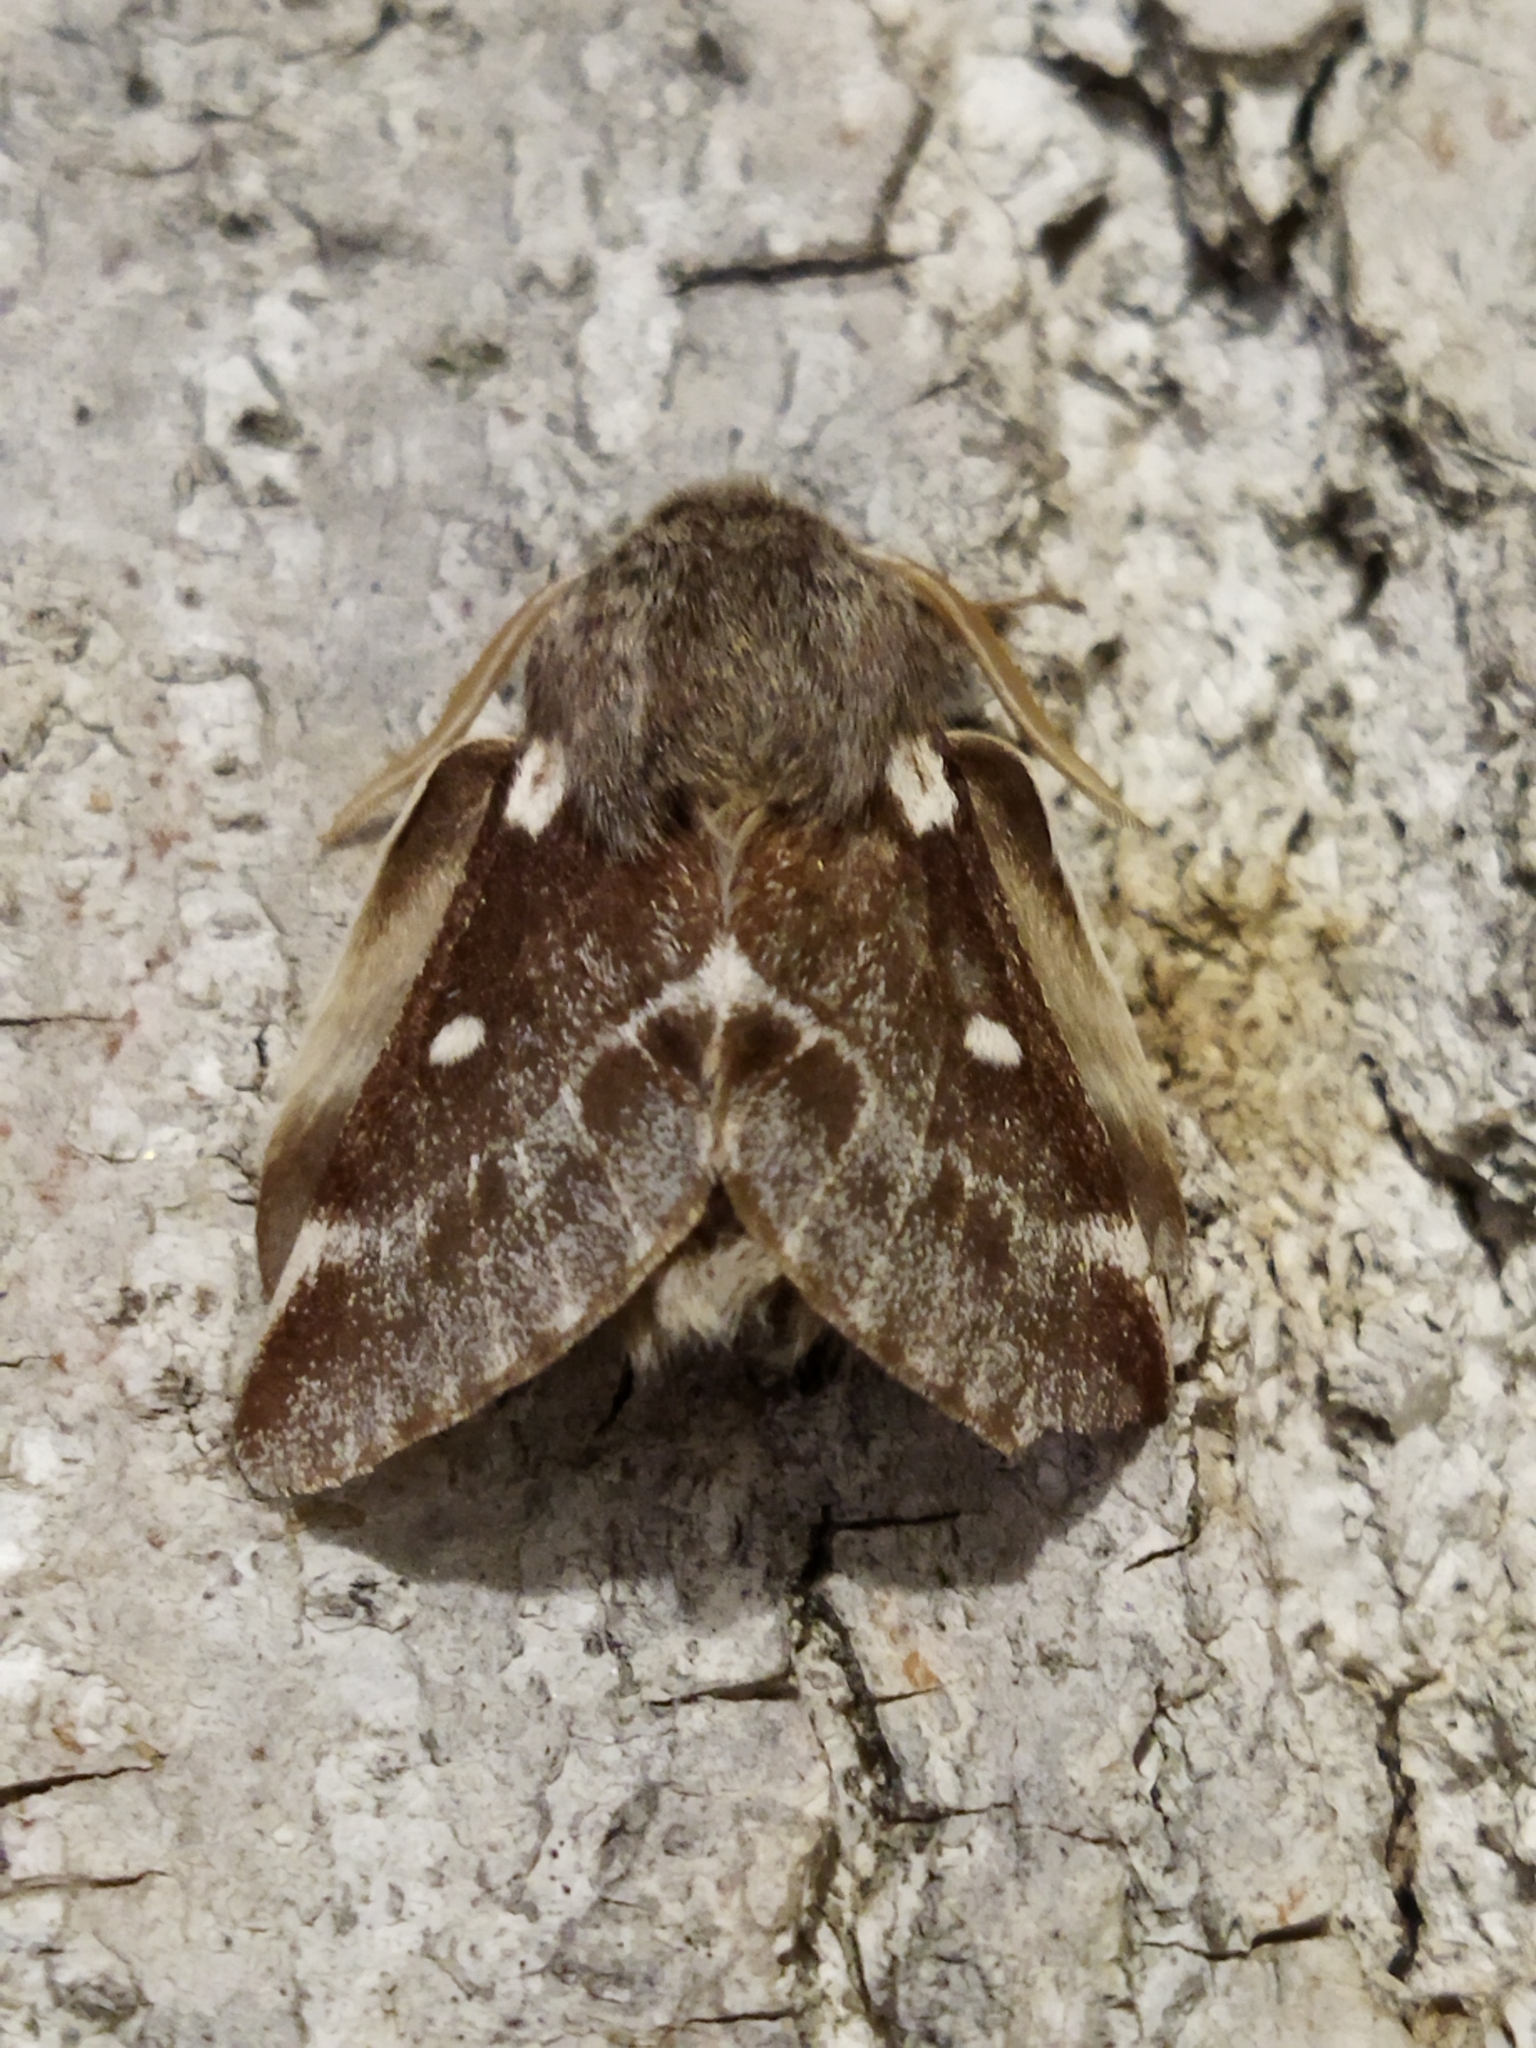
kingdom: Animalia
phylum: Arthropoda
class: Insecta
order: Lepidoptera
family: Lasiocampidae
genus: Eriogaster
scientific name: Eriogaster lanestris
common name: Small eggar
